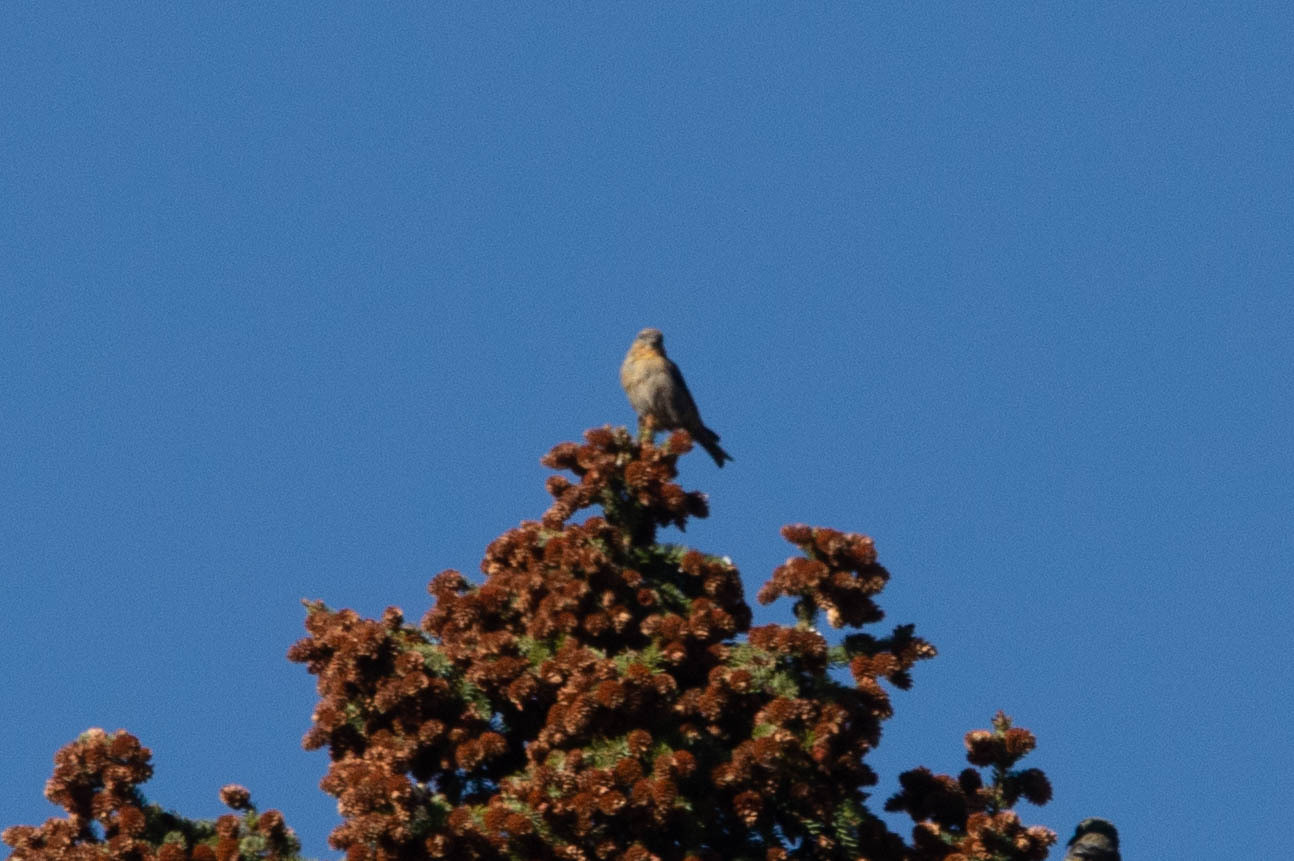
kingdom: Animalia
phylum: Chordata
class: Aves
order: Passeriformes
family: Fringillidae
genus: Loxia
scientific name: Loxia curvirostra
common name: Red crossbill
